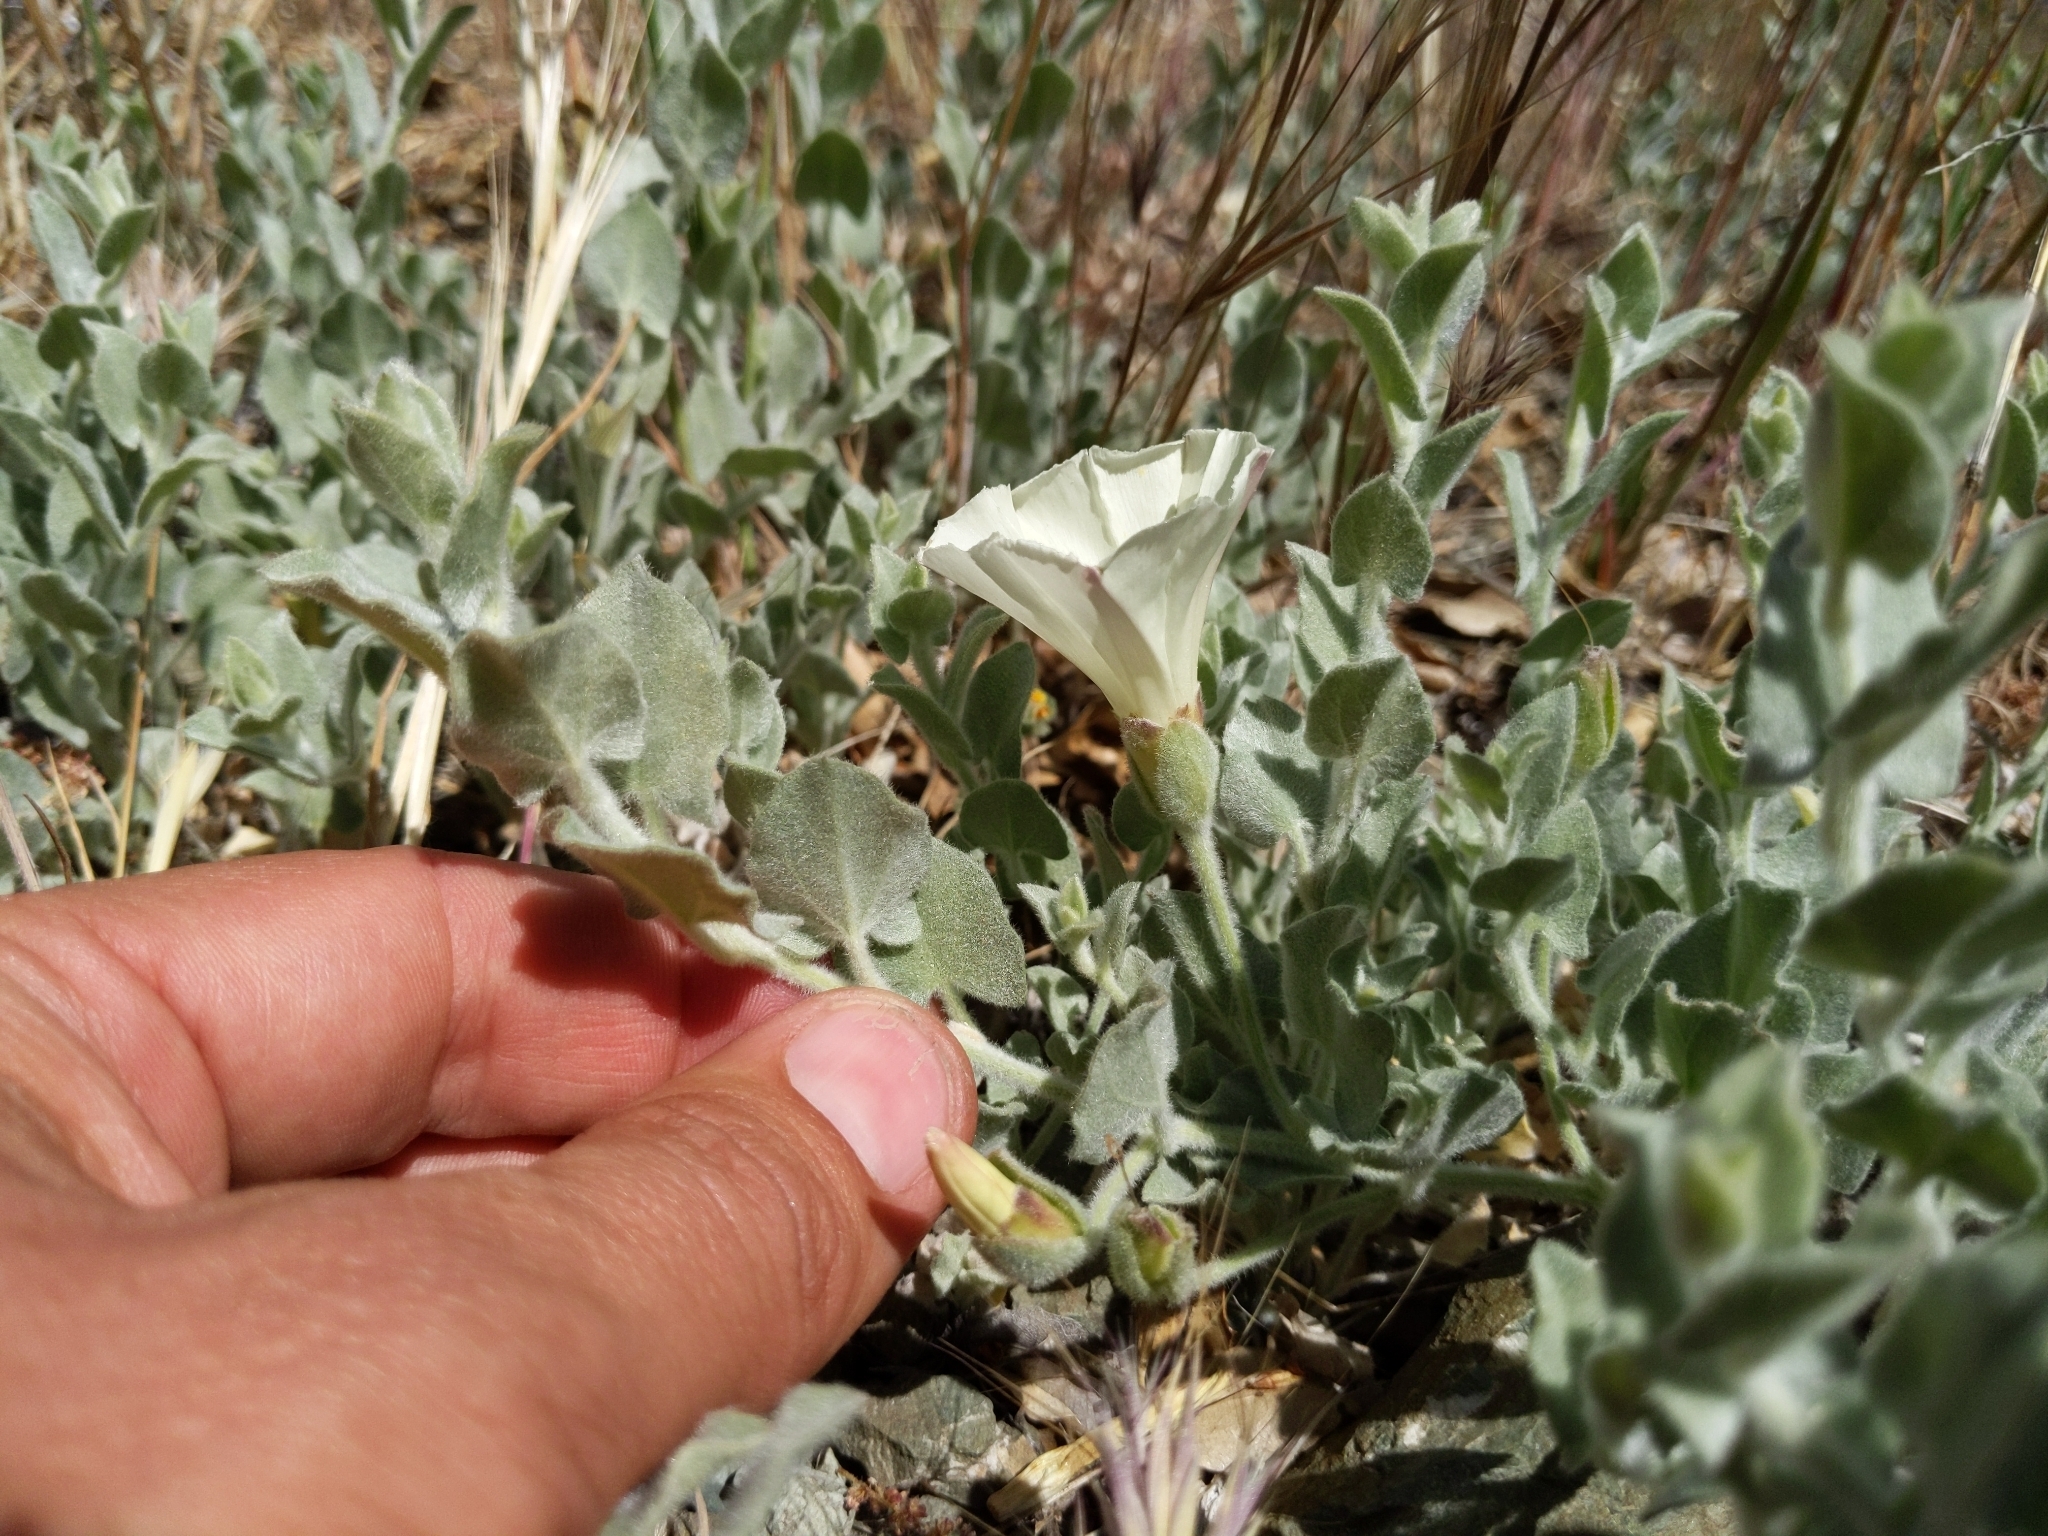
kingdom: Plantae
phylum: Tracheophyta
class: Magnoliopsida
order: Solanales
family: Convolvulaceae
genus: Calystegia
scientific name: Calystegia malacophylla
